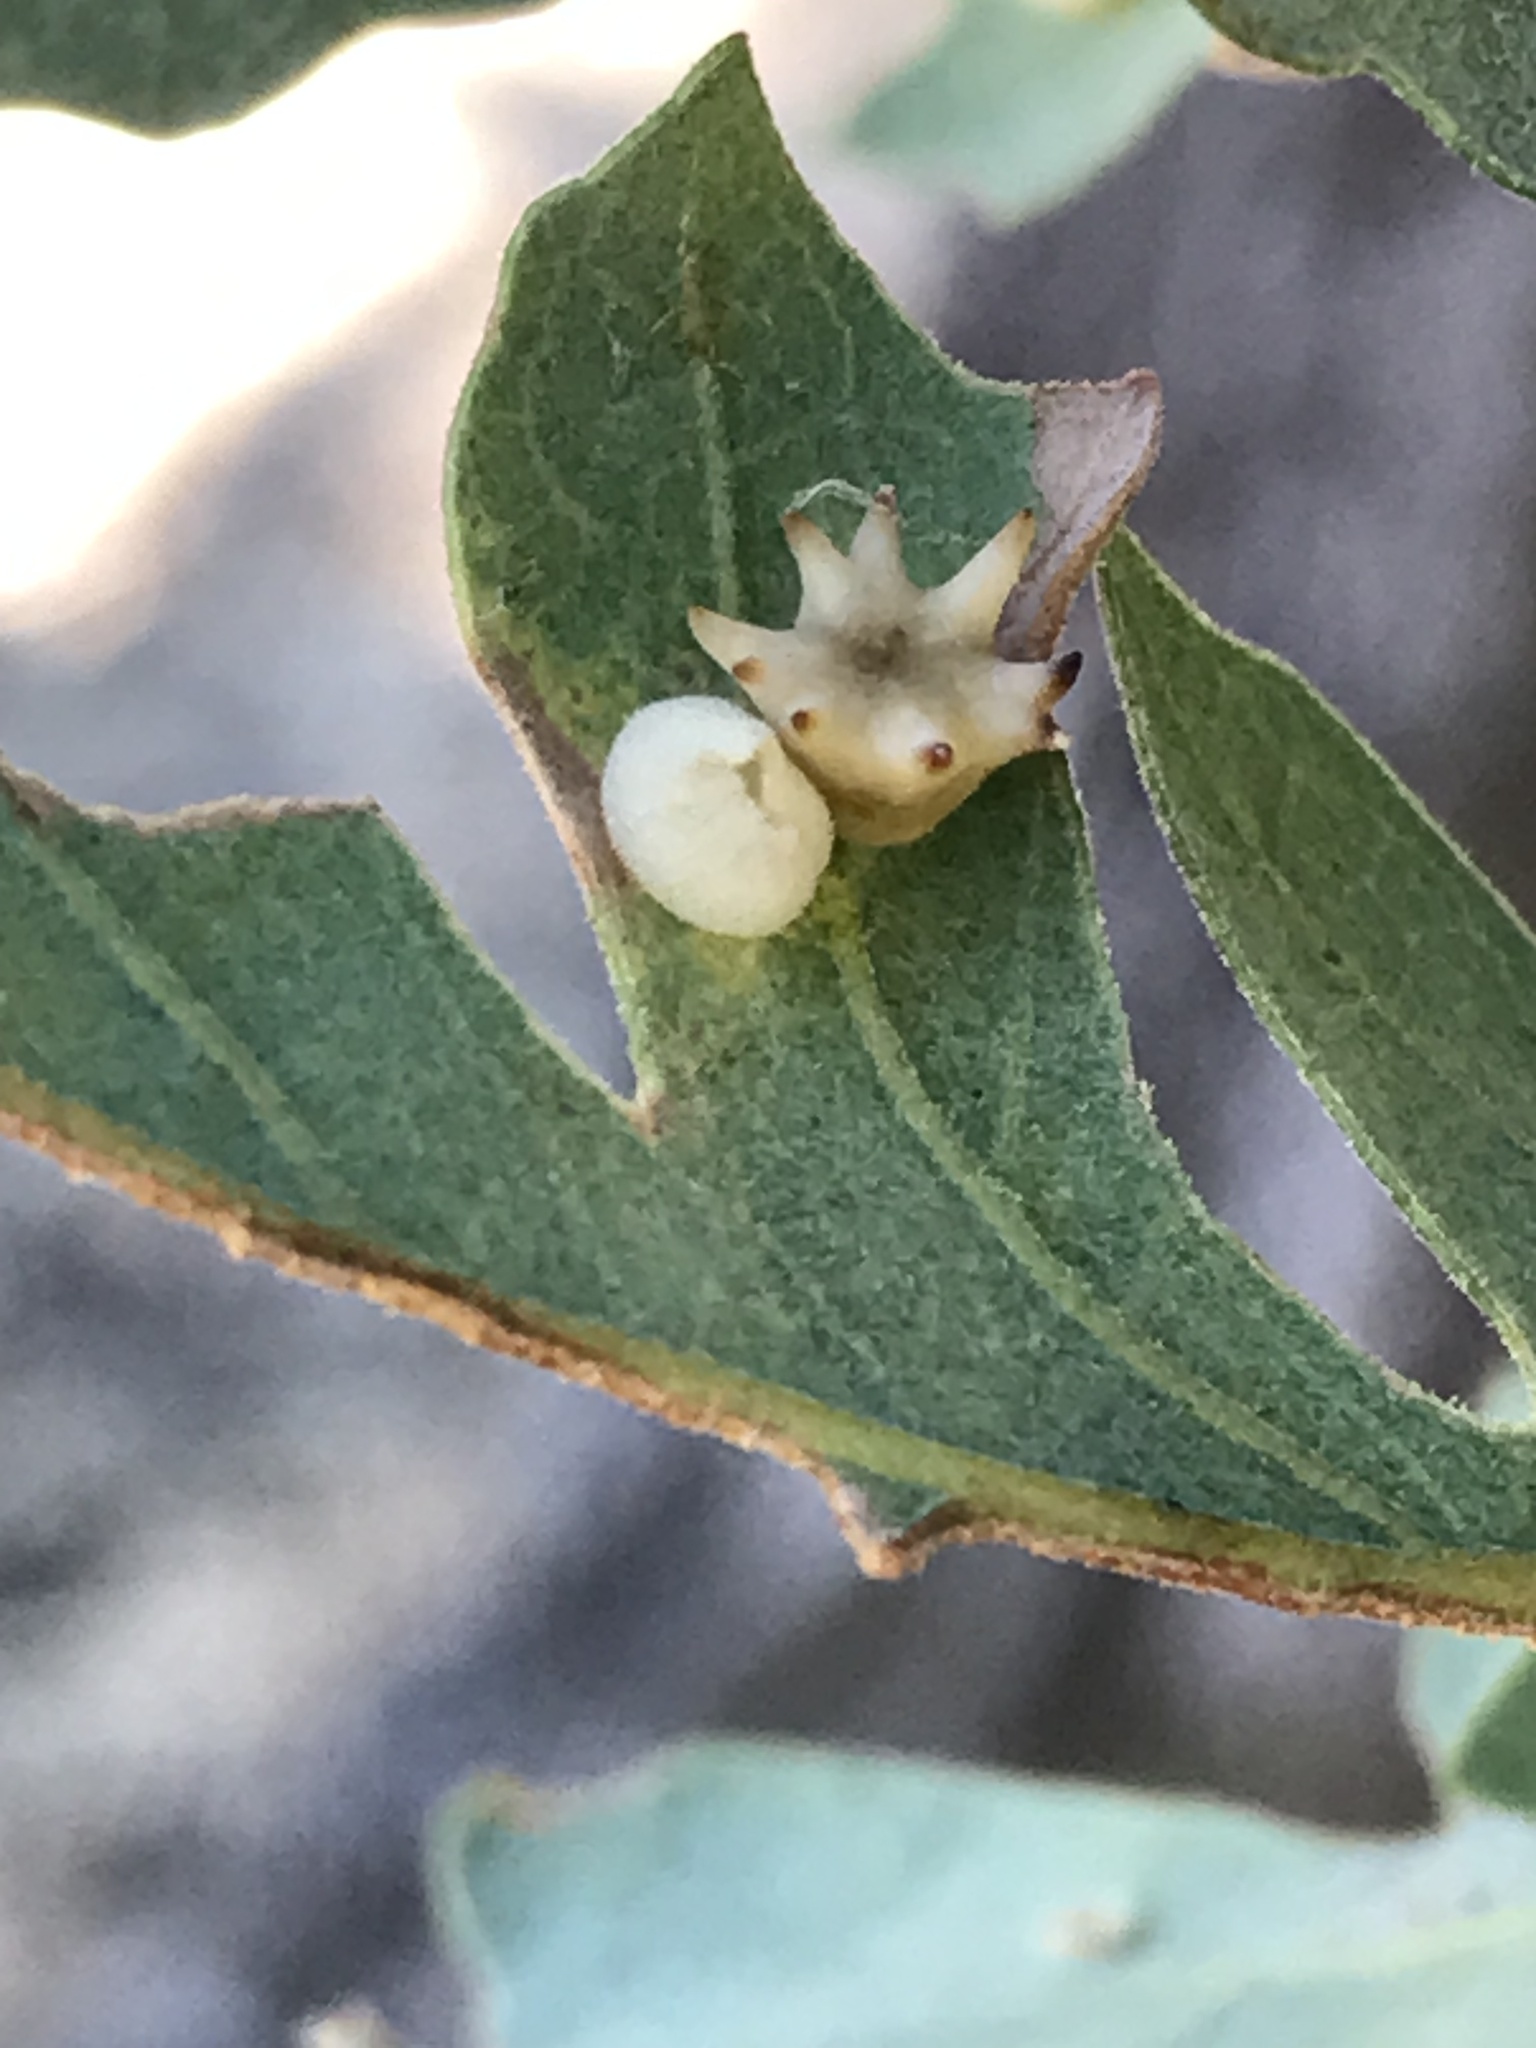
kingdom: Animalia
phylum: Arthropoda
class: Insecta
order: Hymenoptera
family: Cynipidae
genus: Cynips
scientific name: Cynips douglasi
